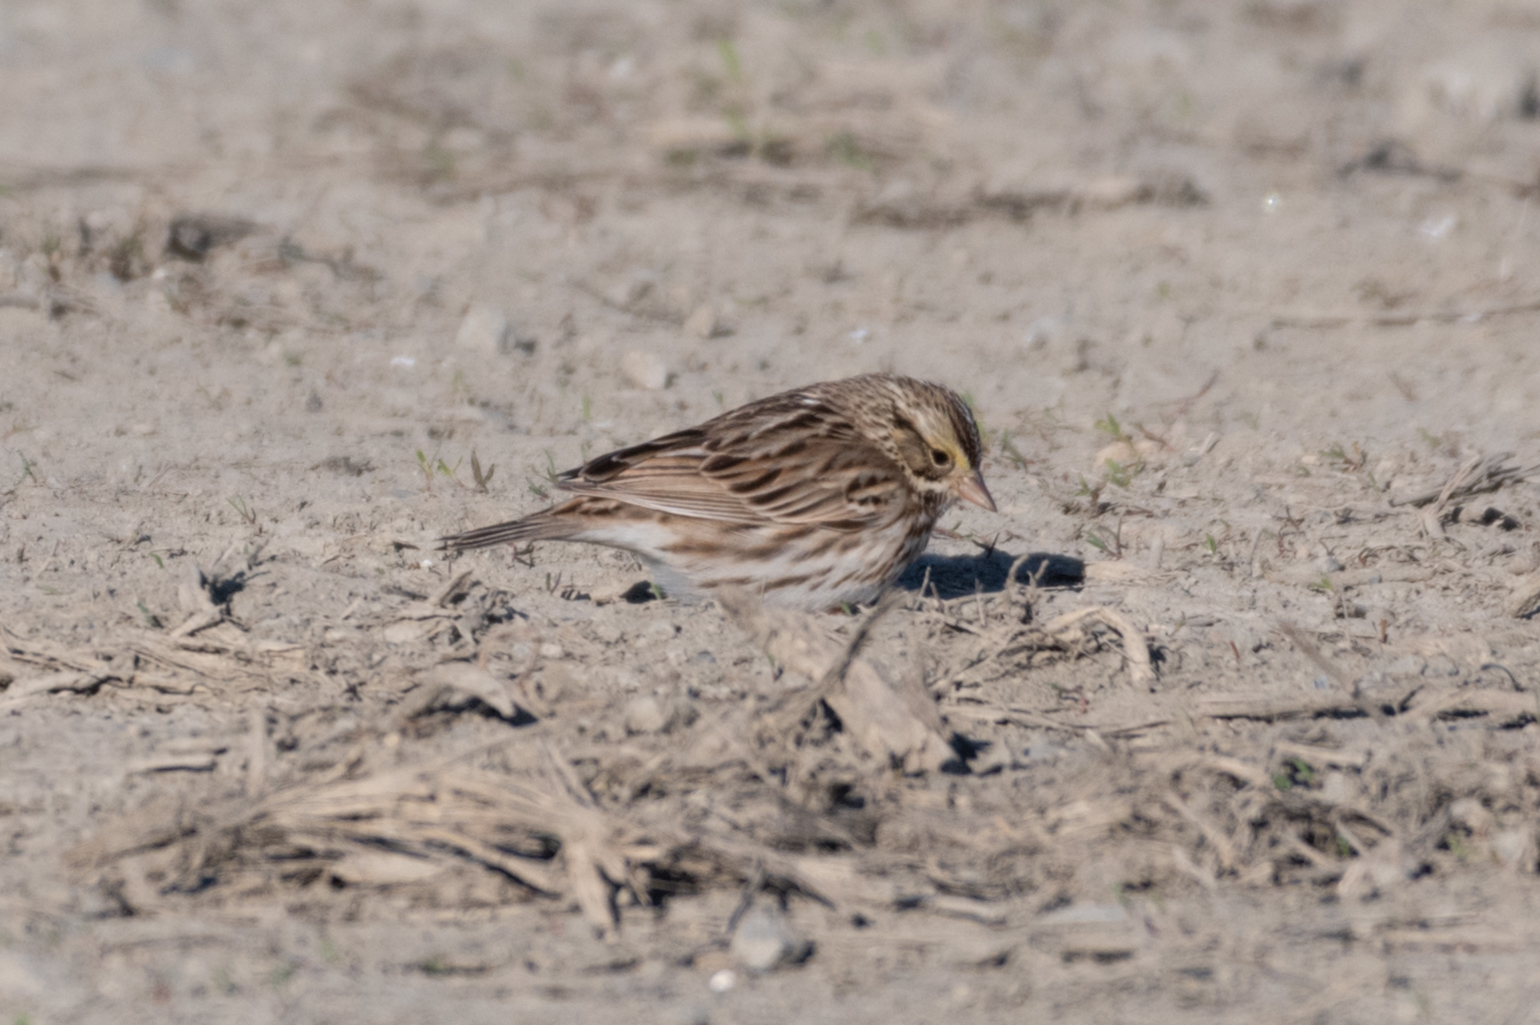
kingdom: Animalia
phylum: Chordata
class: Aves
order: Passeriformes
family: Passerellidae
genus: Passerculus
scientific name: Passerculus sandwichensis
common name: Savannah sparrow
